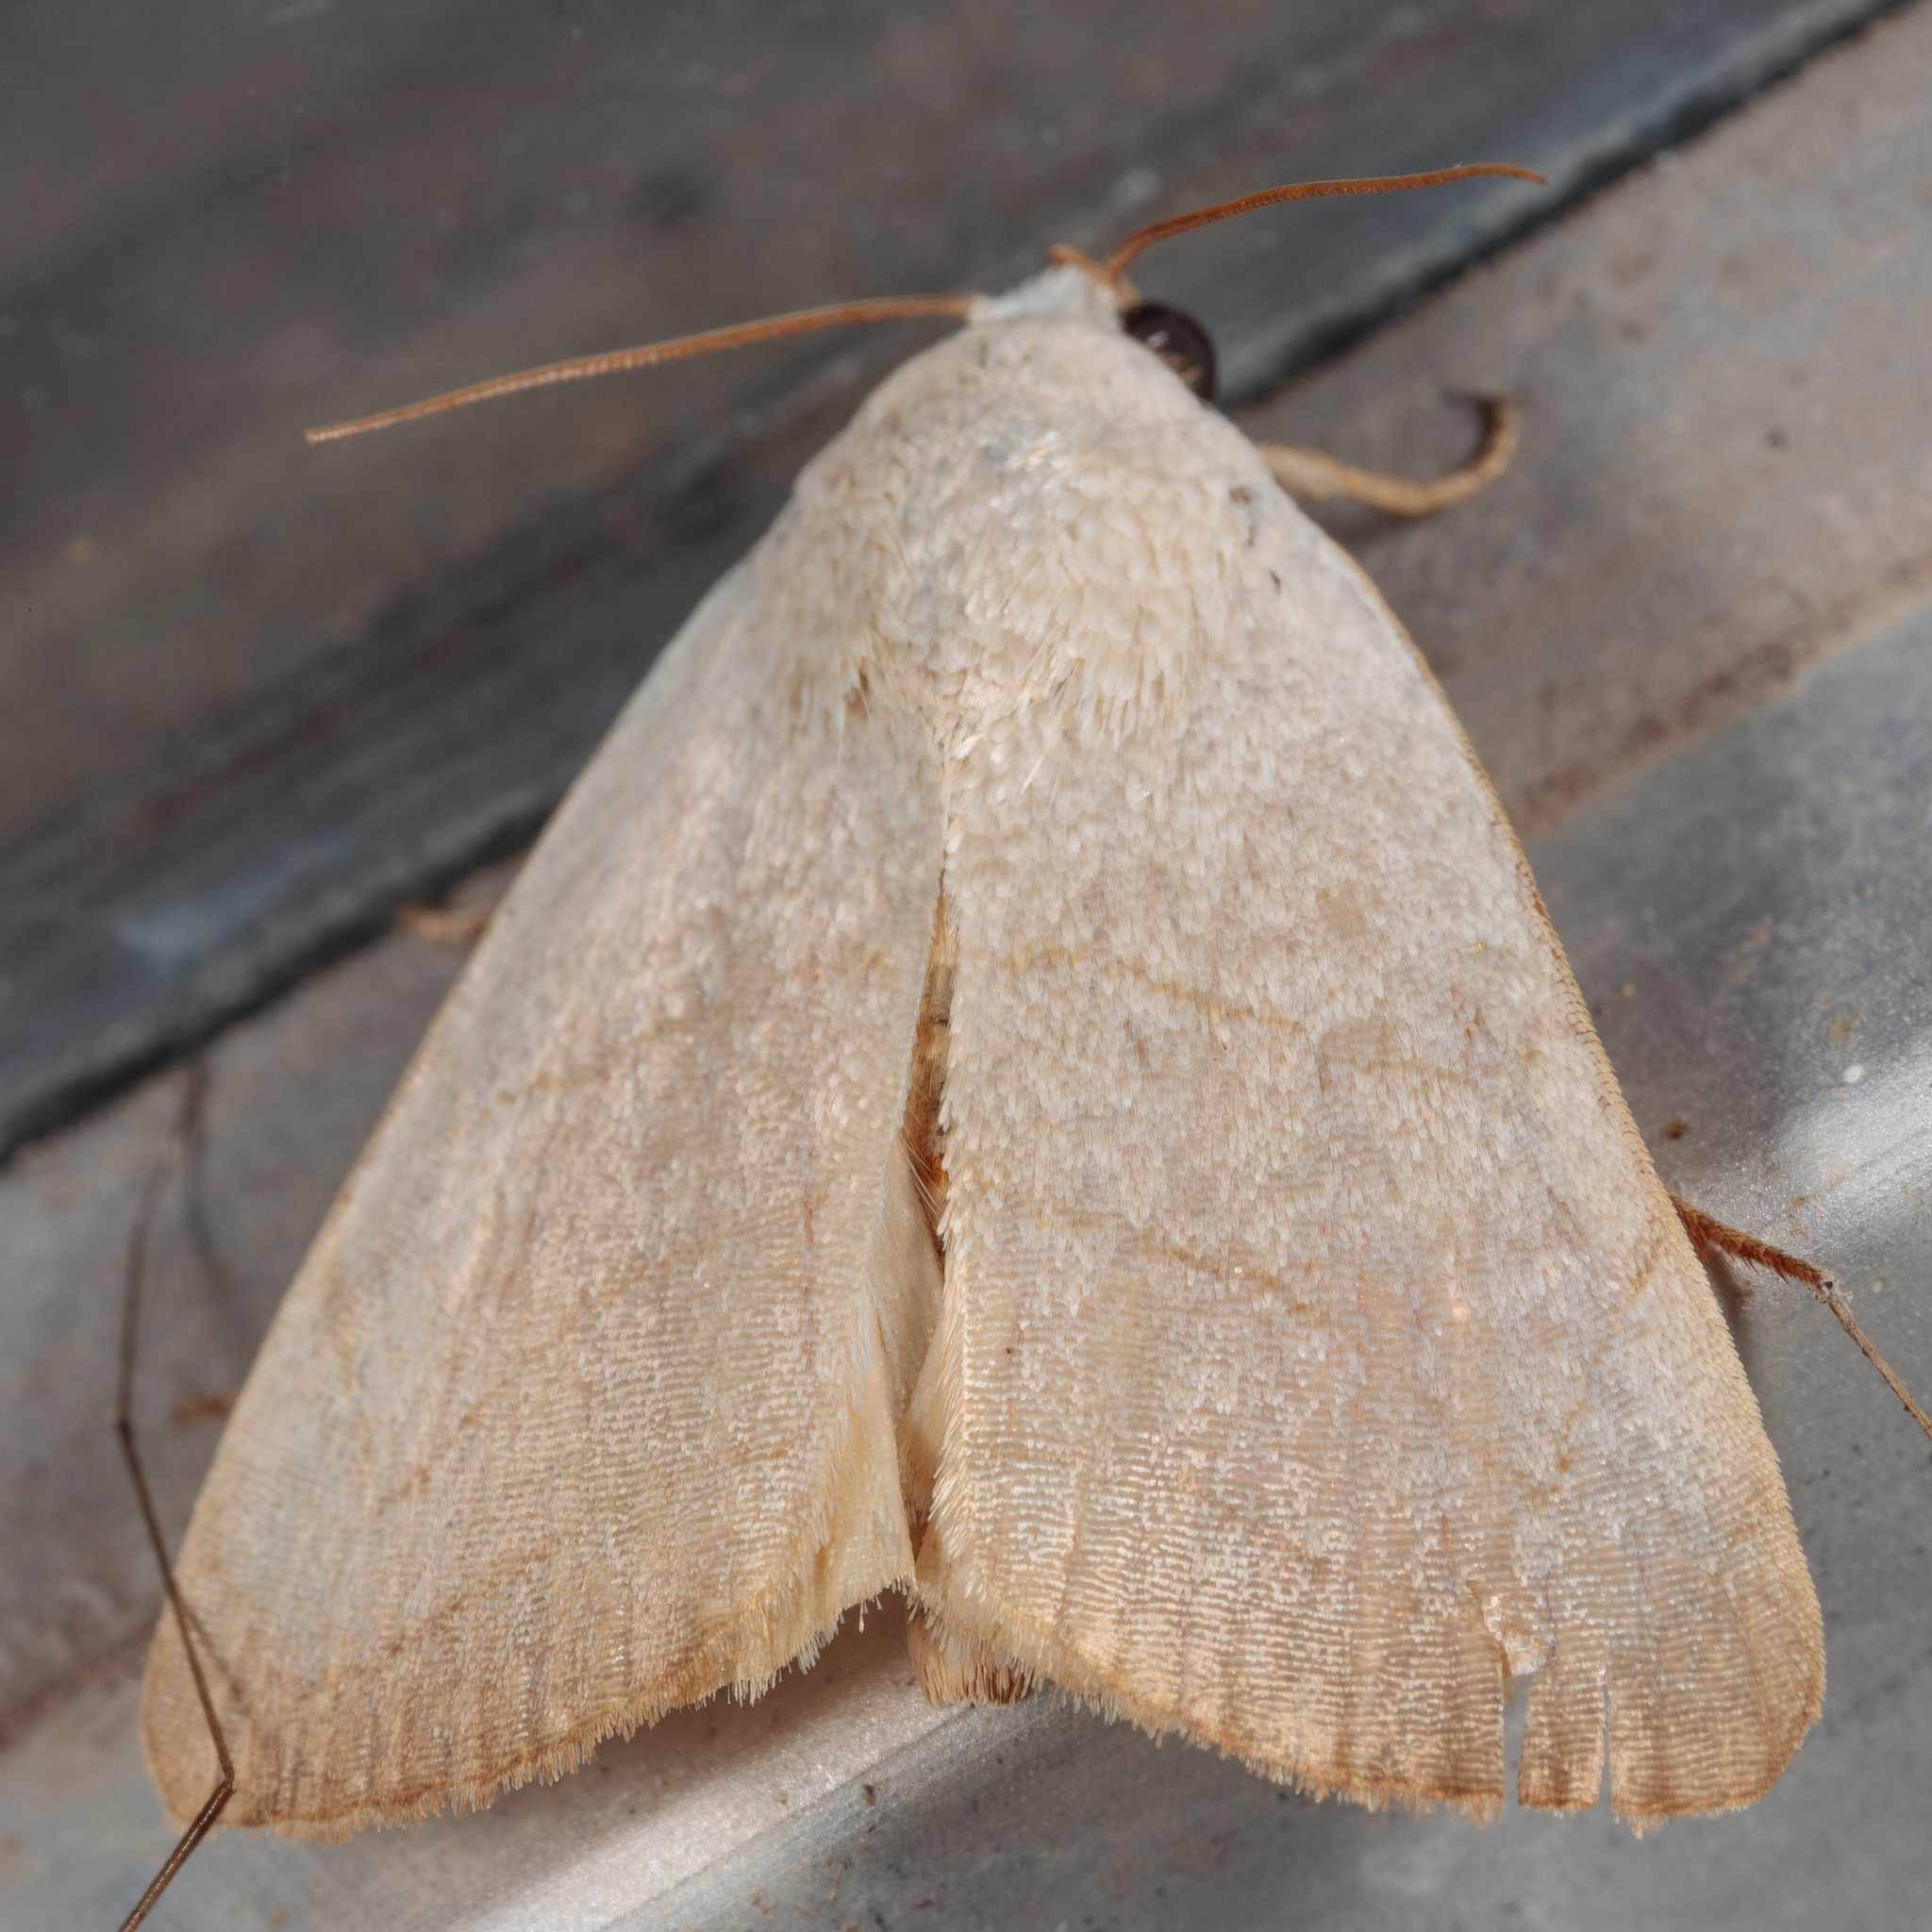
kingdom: Animalia
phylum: Arthropoda
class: Insecta
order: Lepidoptera
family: Noctuidae
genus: Bagisara
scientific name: Bagisara buxea
